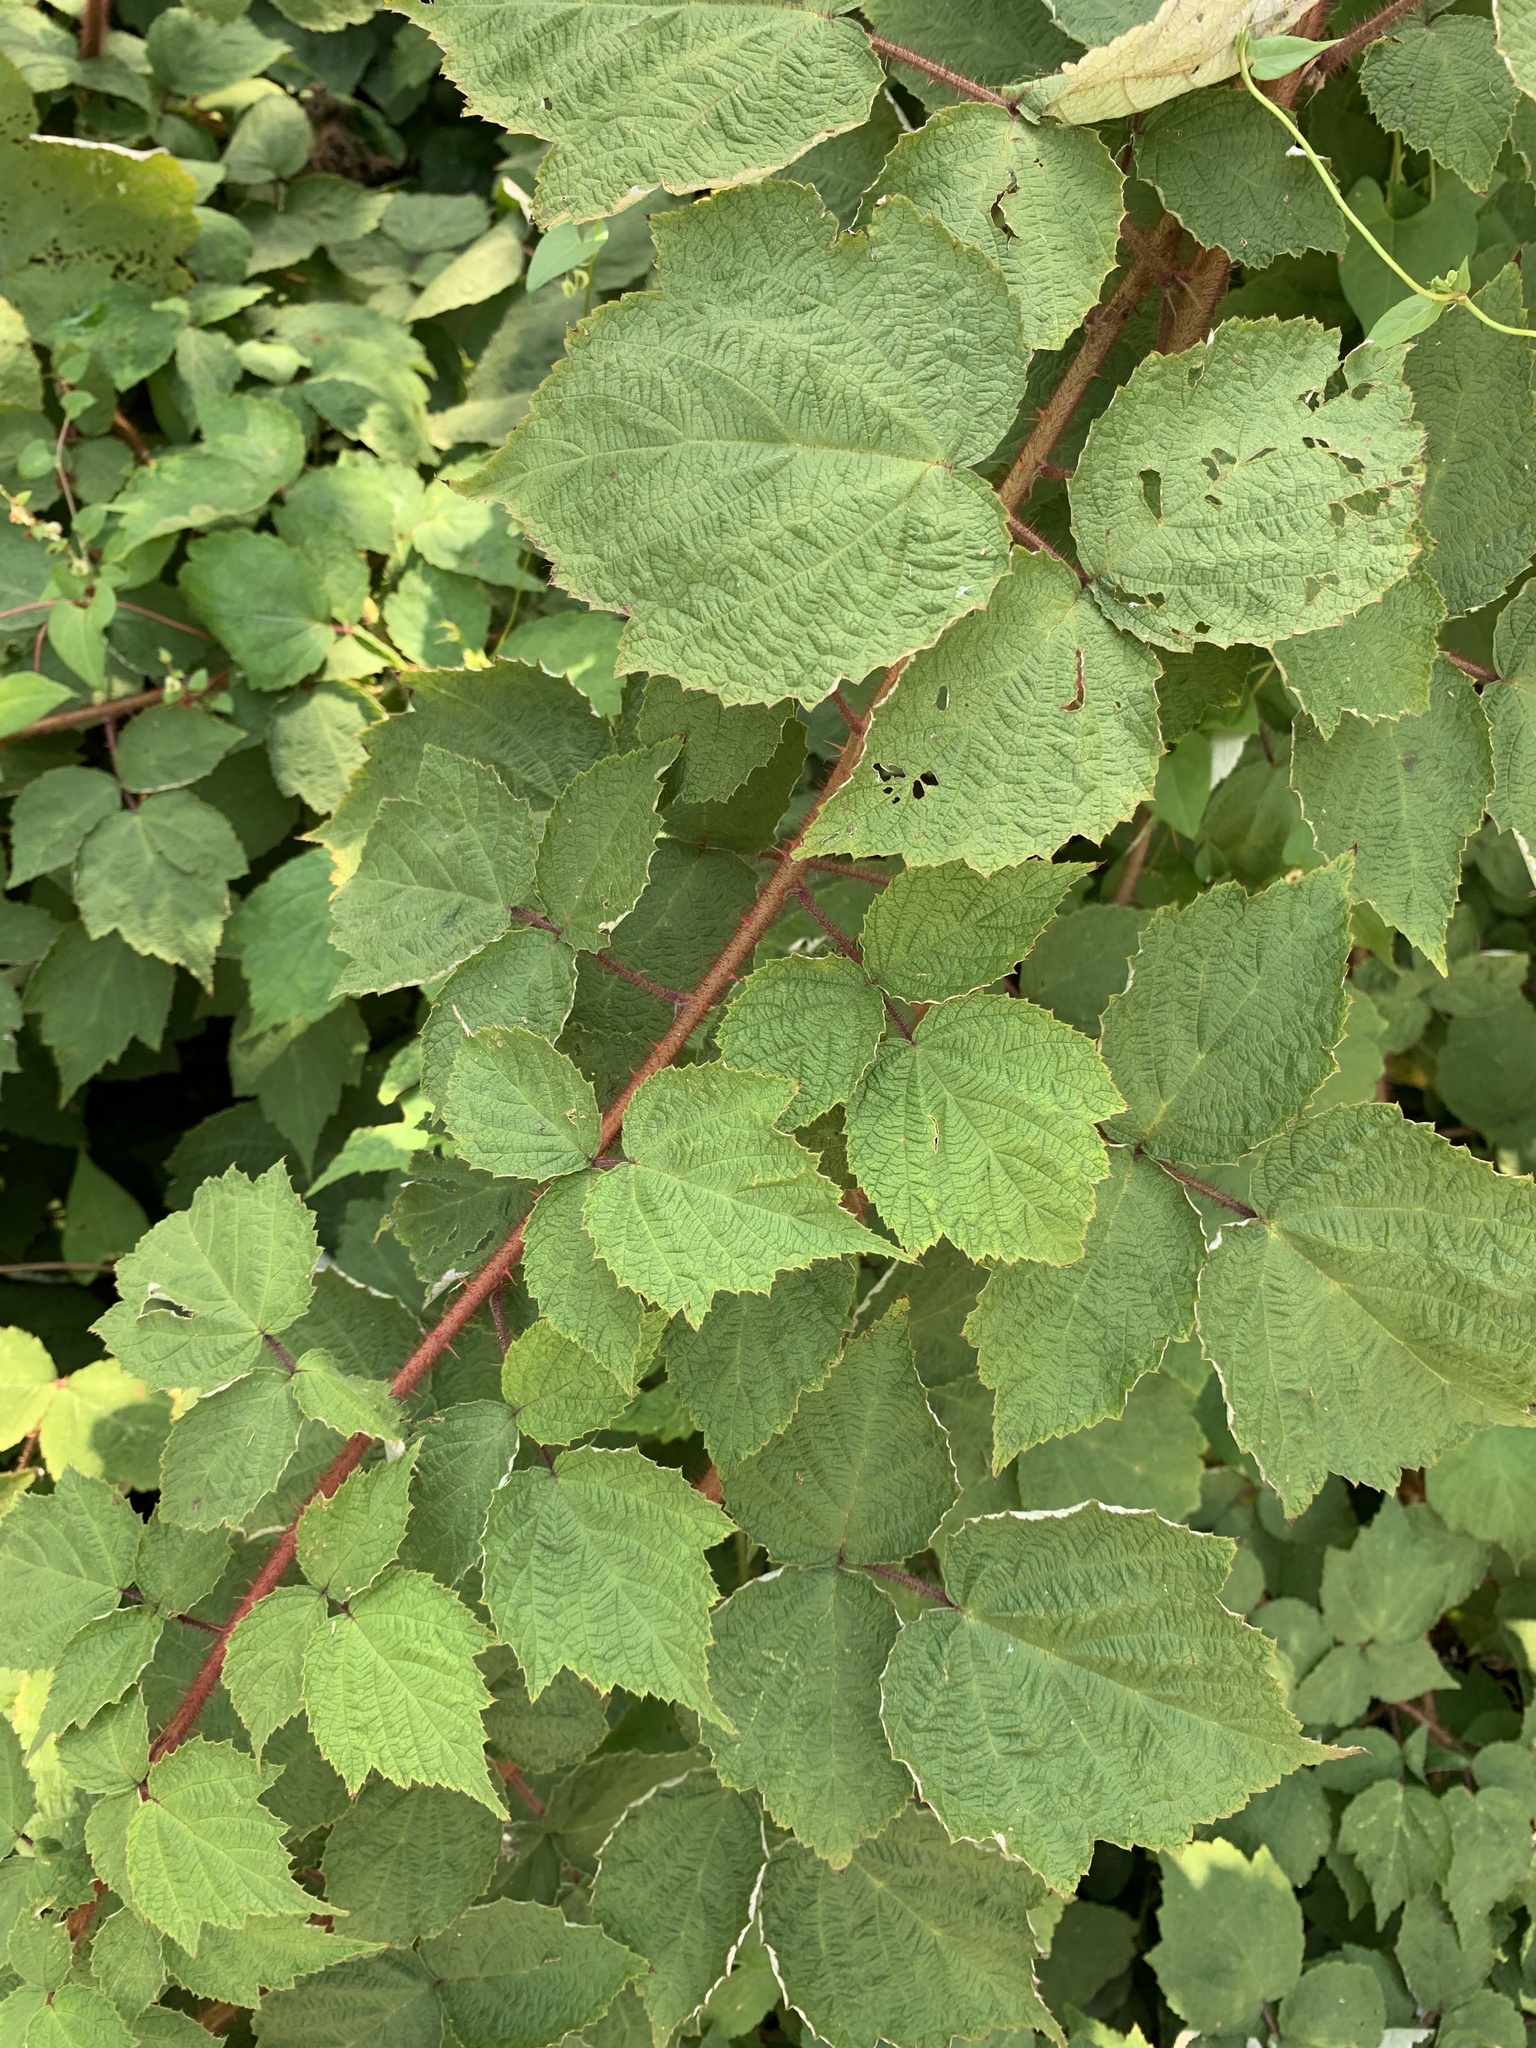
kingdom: Plantae
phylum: Tracheophyta
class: Magnoliopsida
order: Rosales
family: Rosaceae
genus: Rubus
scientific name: Rubus phoenicolasius
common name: Japanese wineberry
